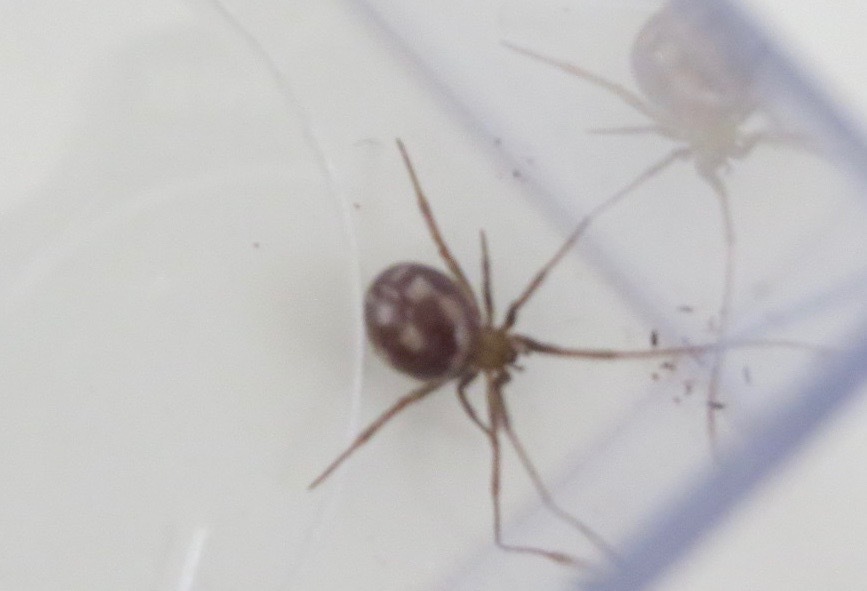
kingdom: Animalia
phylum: Arthropoda
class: Arachnida
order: Araneae
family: Theridiidae
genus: Steatoda
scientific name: Steatoda grossa
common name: False black widow
